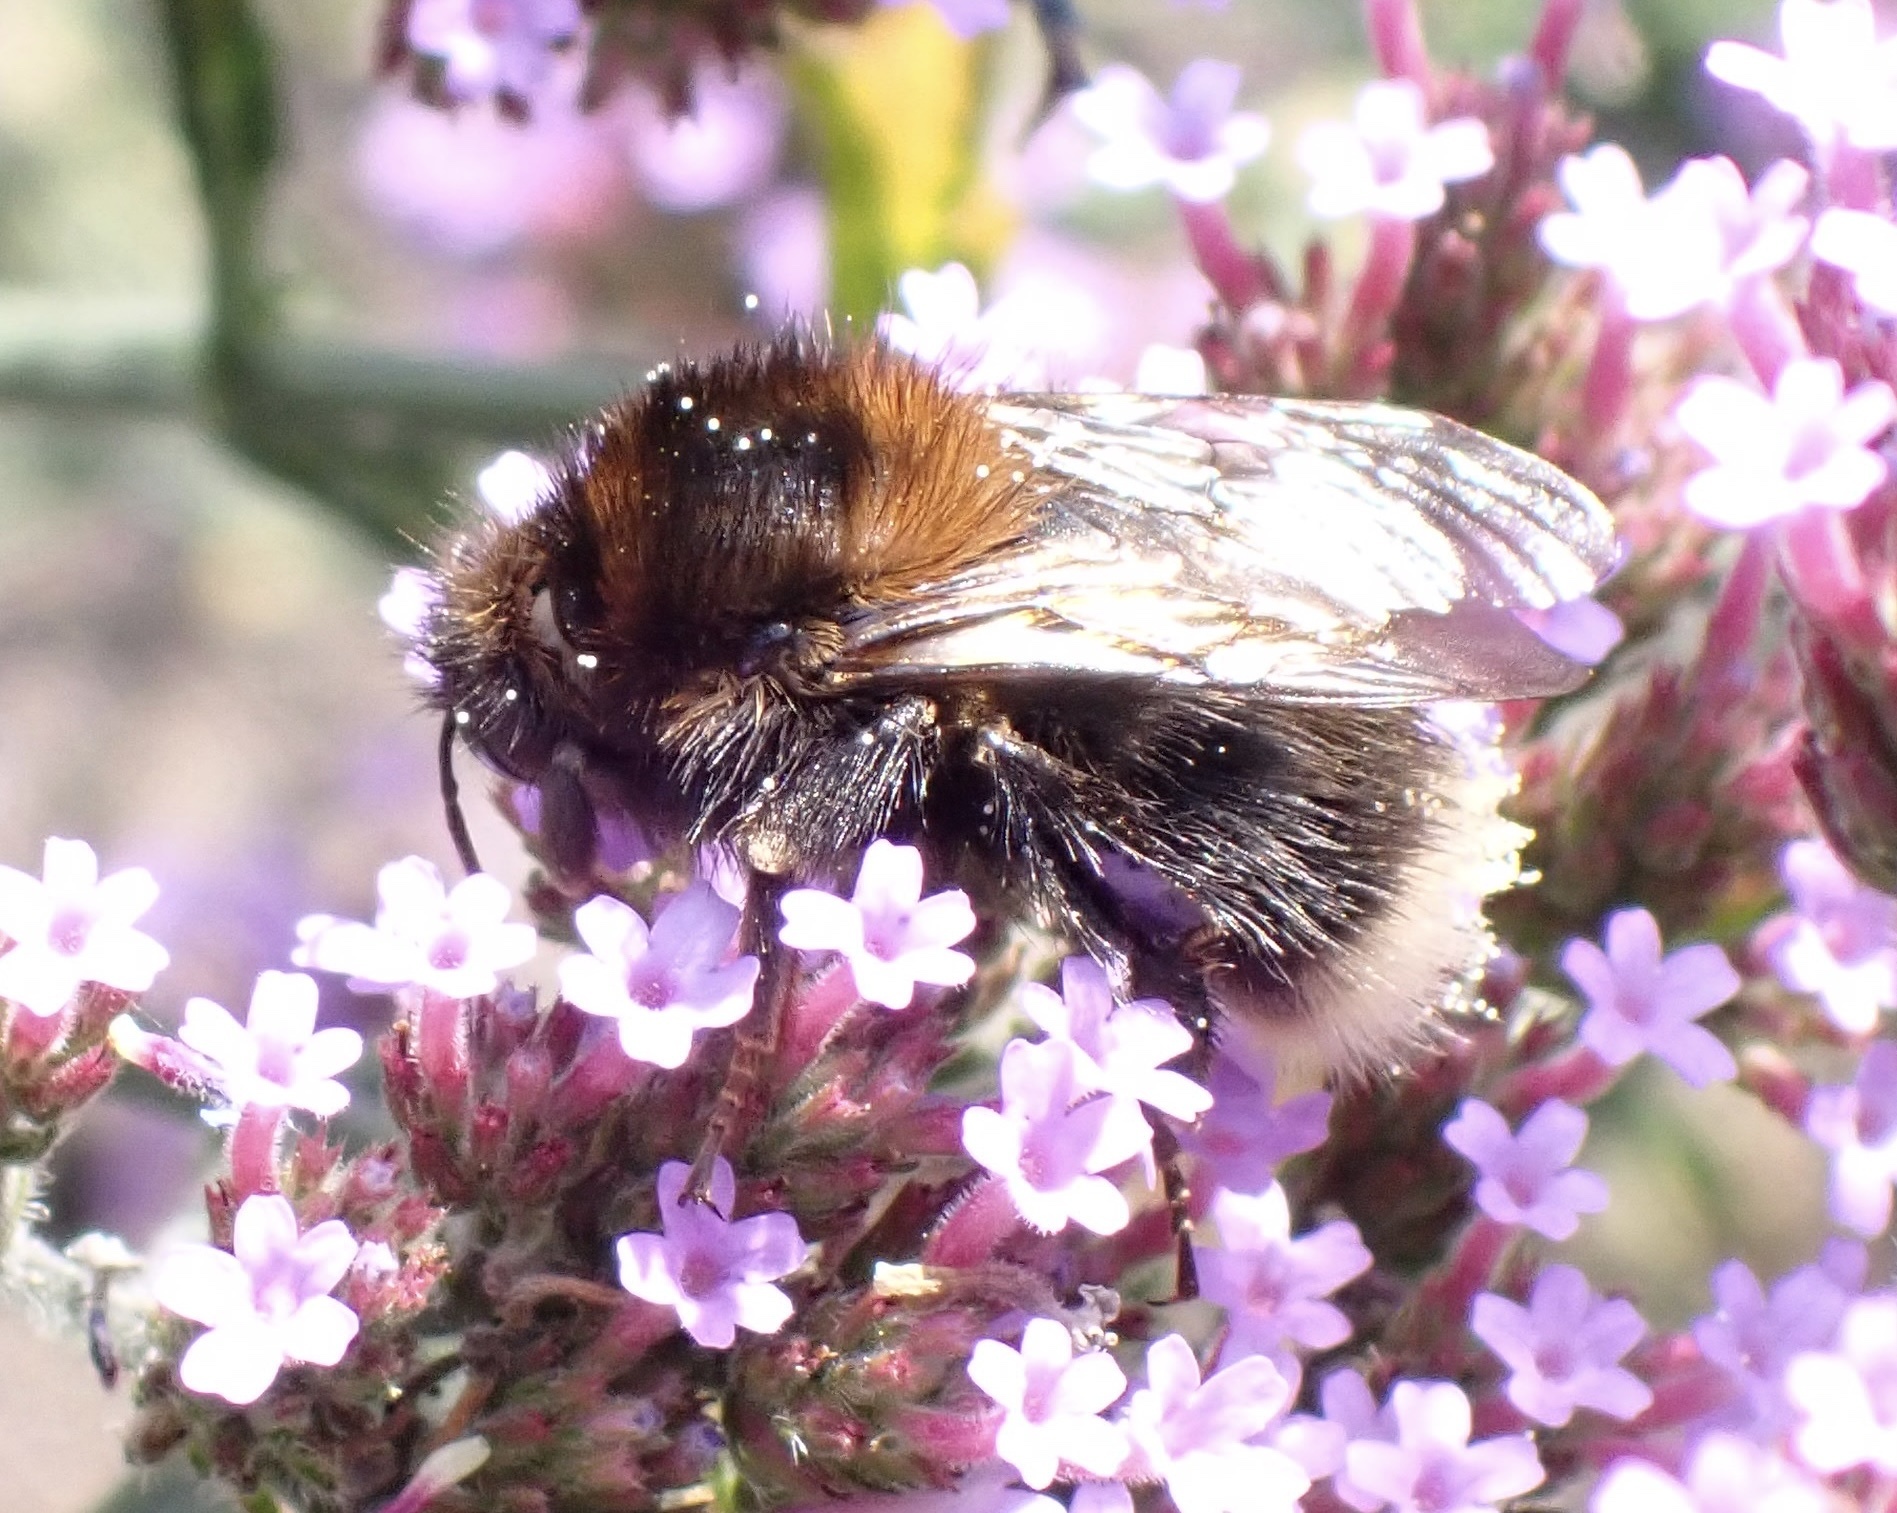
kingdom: Animalia
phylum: Arthropoda
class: Insecta
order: Hymenoptera
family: Apidae
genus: Bombus
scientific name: Bombus hypnorum
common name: New garden bumblebee
